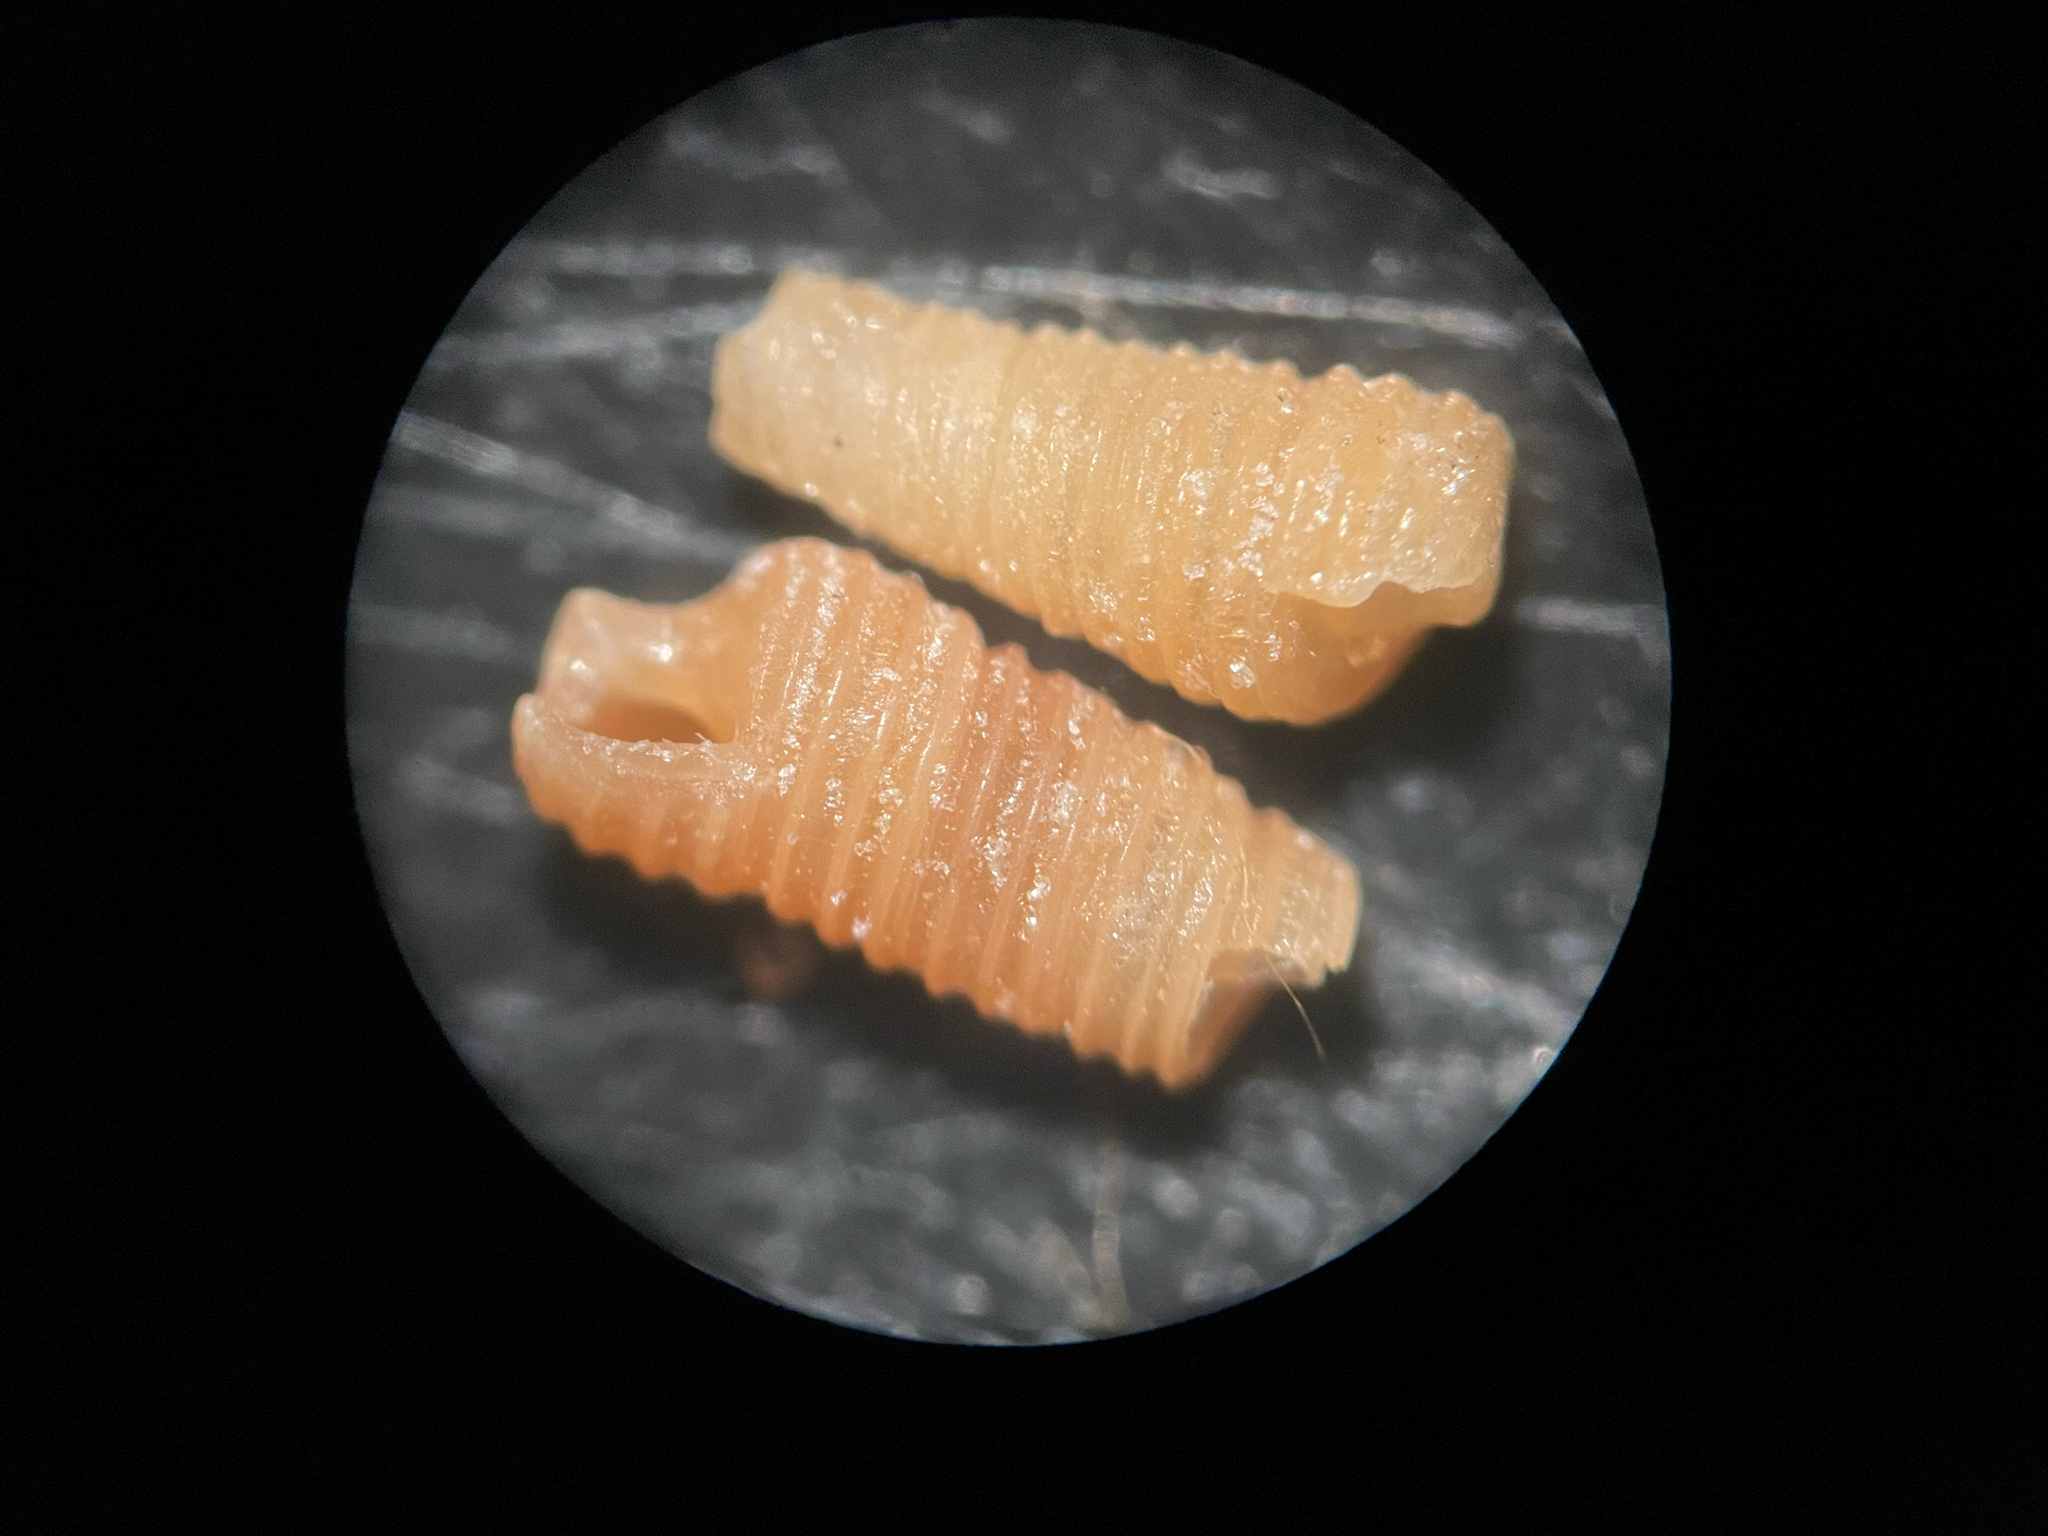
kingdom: Animalia
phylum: Mollusca
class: Gastropoda
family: Cerithiopsidae
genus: Seila
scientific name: Seila adamsii
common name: Adam's miniature cerith
